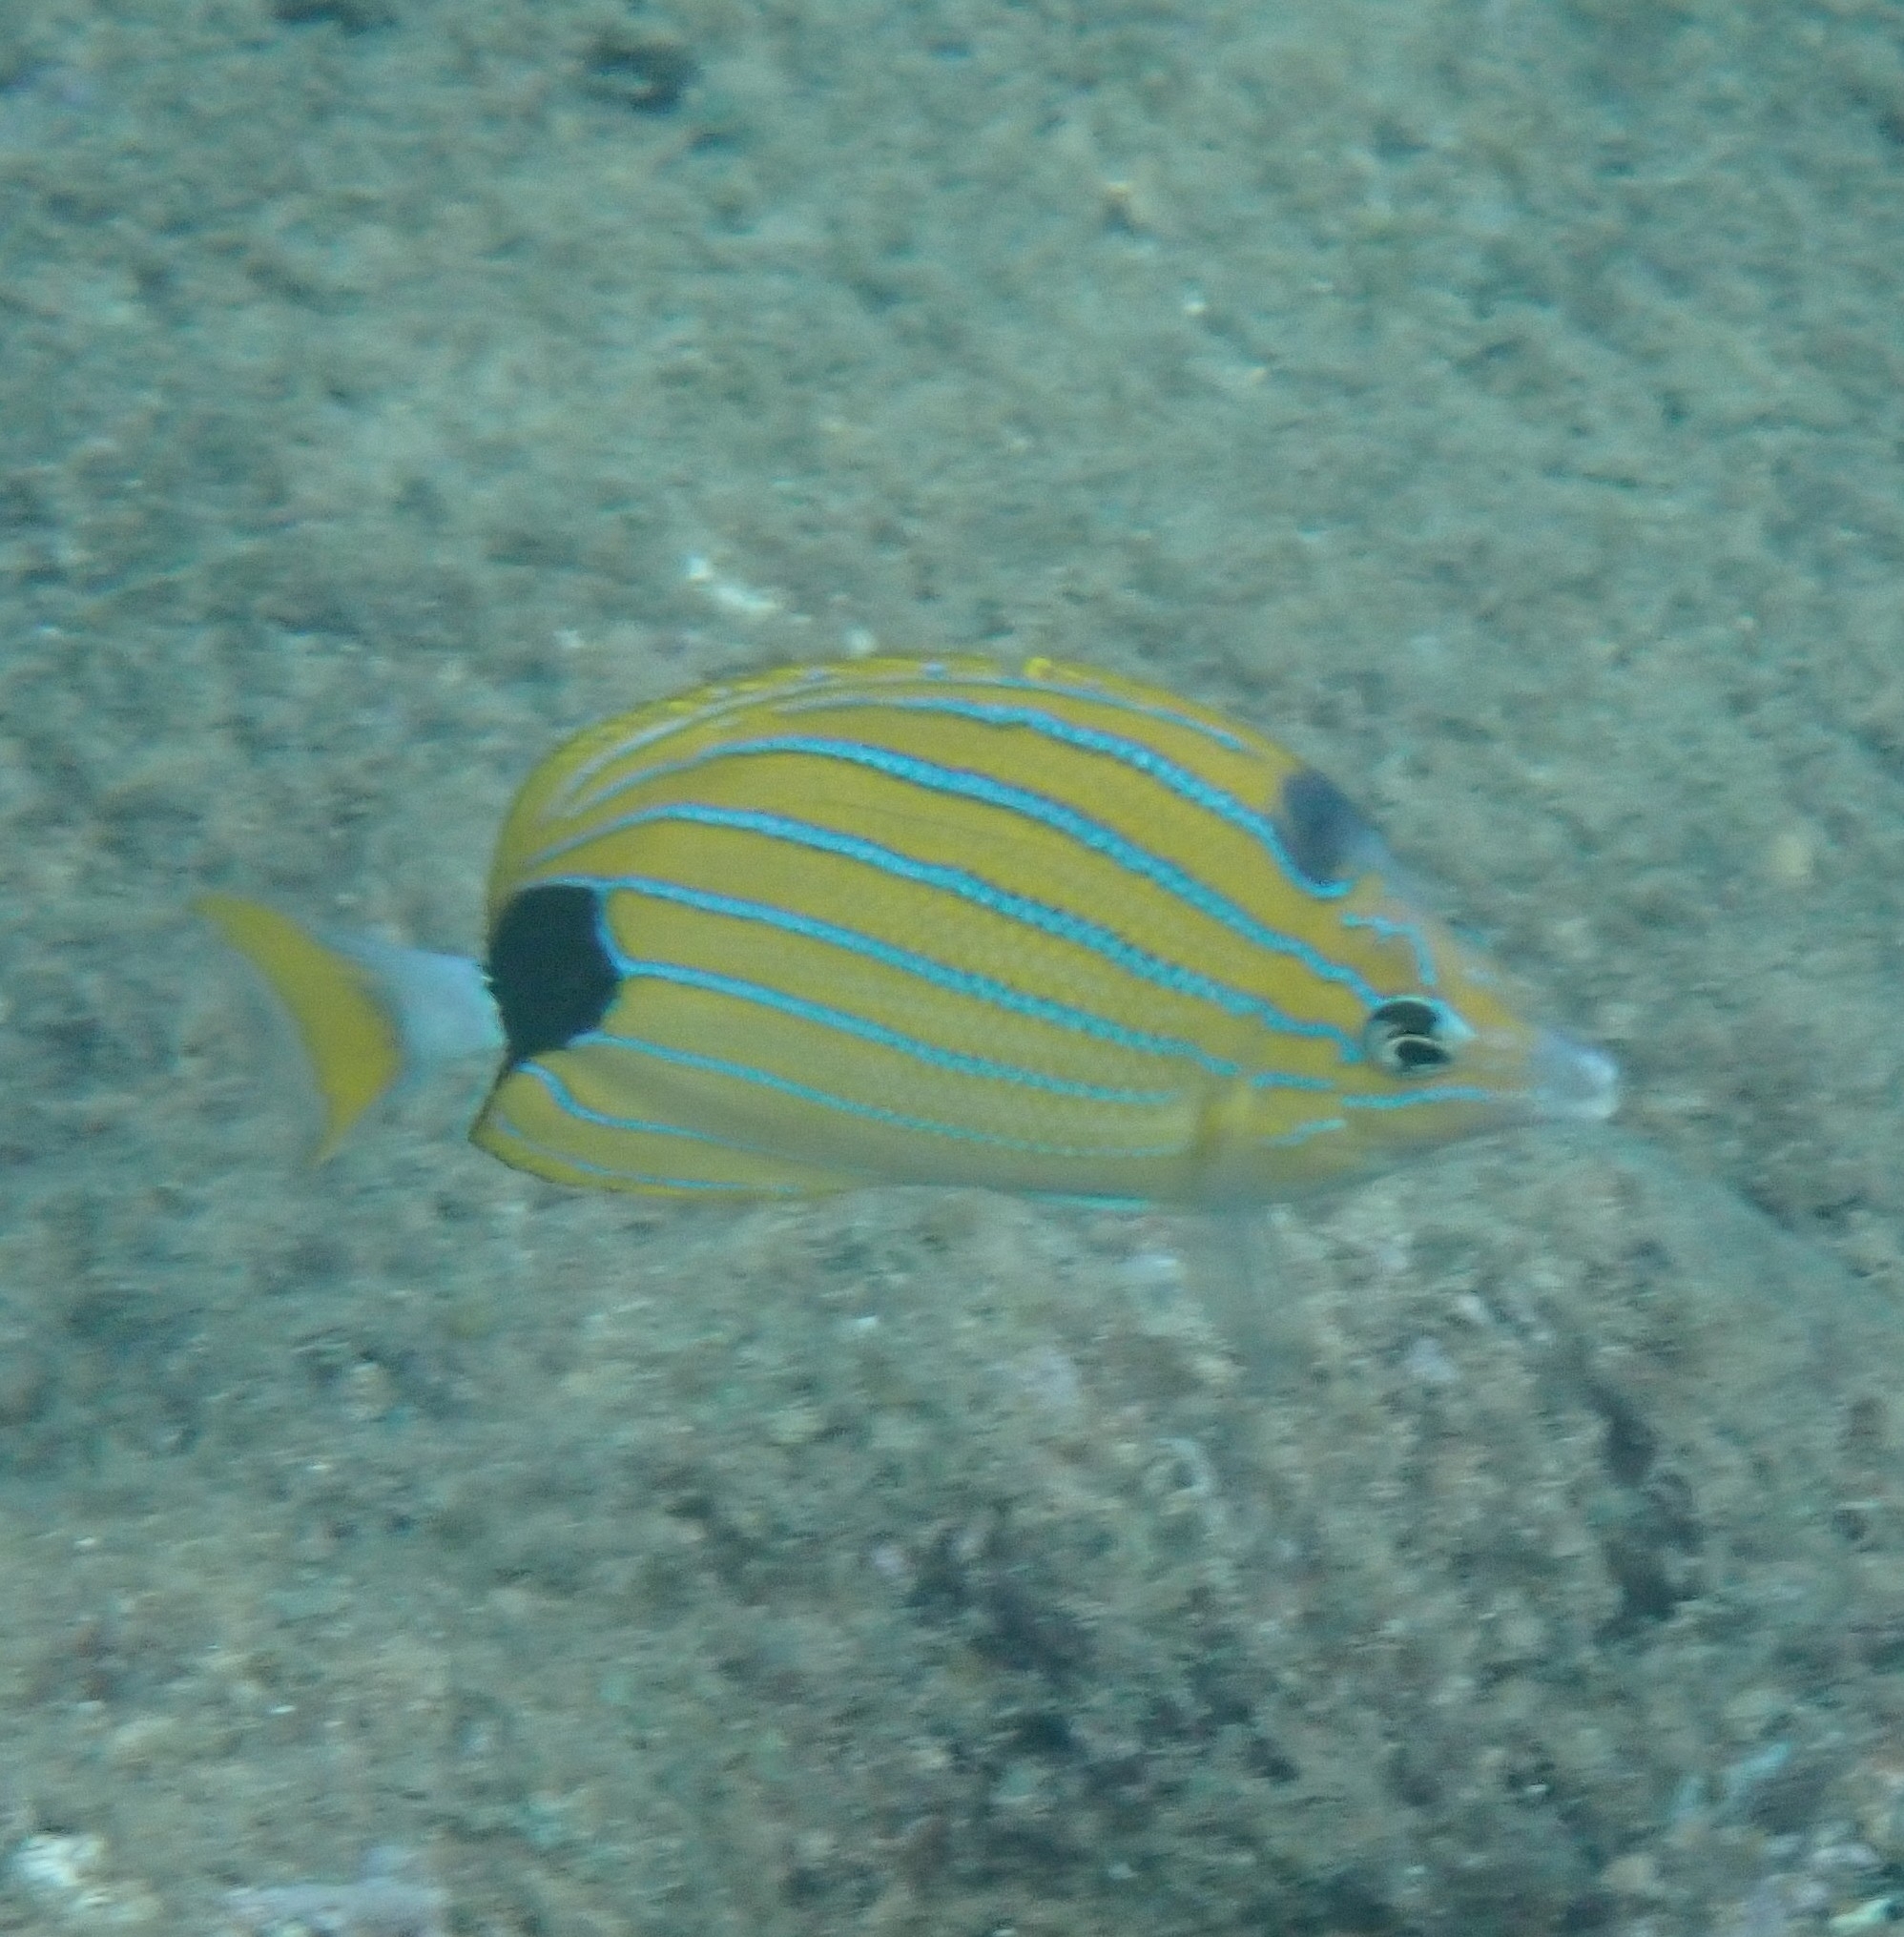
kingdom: Animalia
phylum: Chordata
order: Perciformes
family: Chaetodontidae
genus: Chaetodon
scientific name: Chaetodon fremblii
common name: Bluestriped butterflyfish
